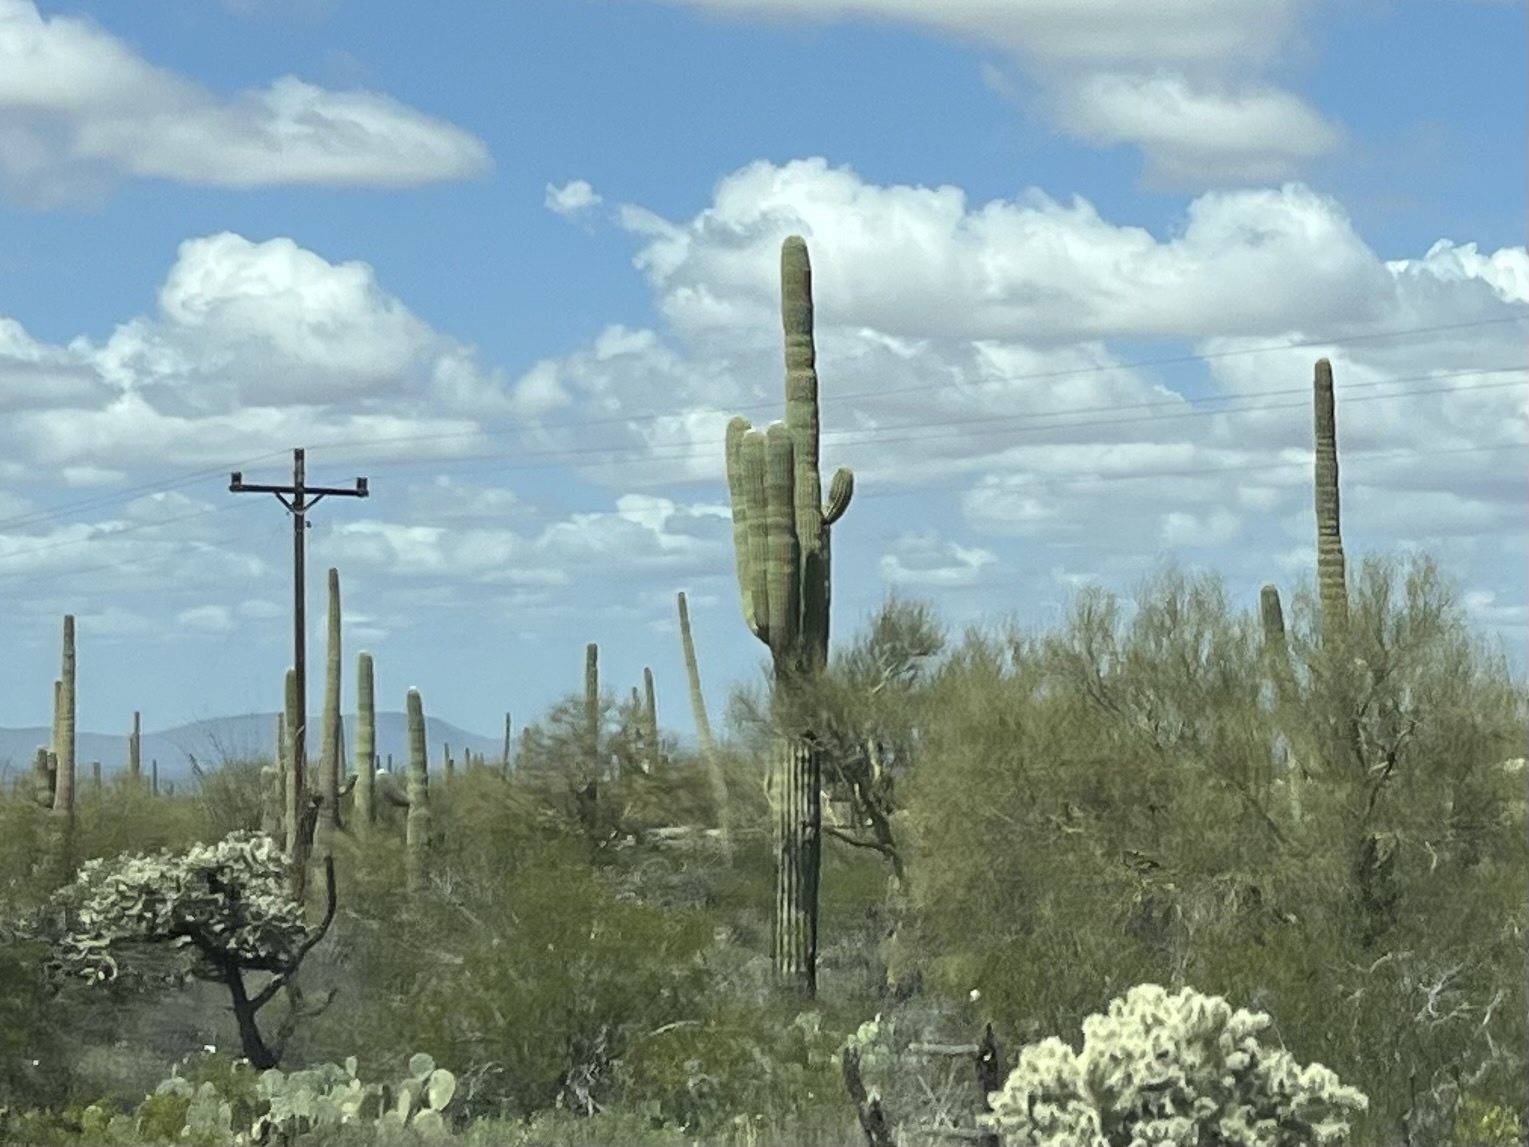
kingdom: Plantae
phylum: Tracheophyta
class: Magnoliopsida
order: Caryophyllales
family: Cactaceae
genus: Carnegiea
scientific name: Carnegiea gigantea
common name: Saguaro
